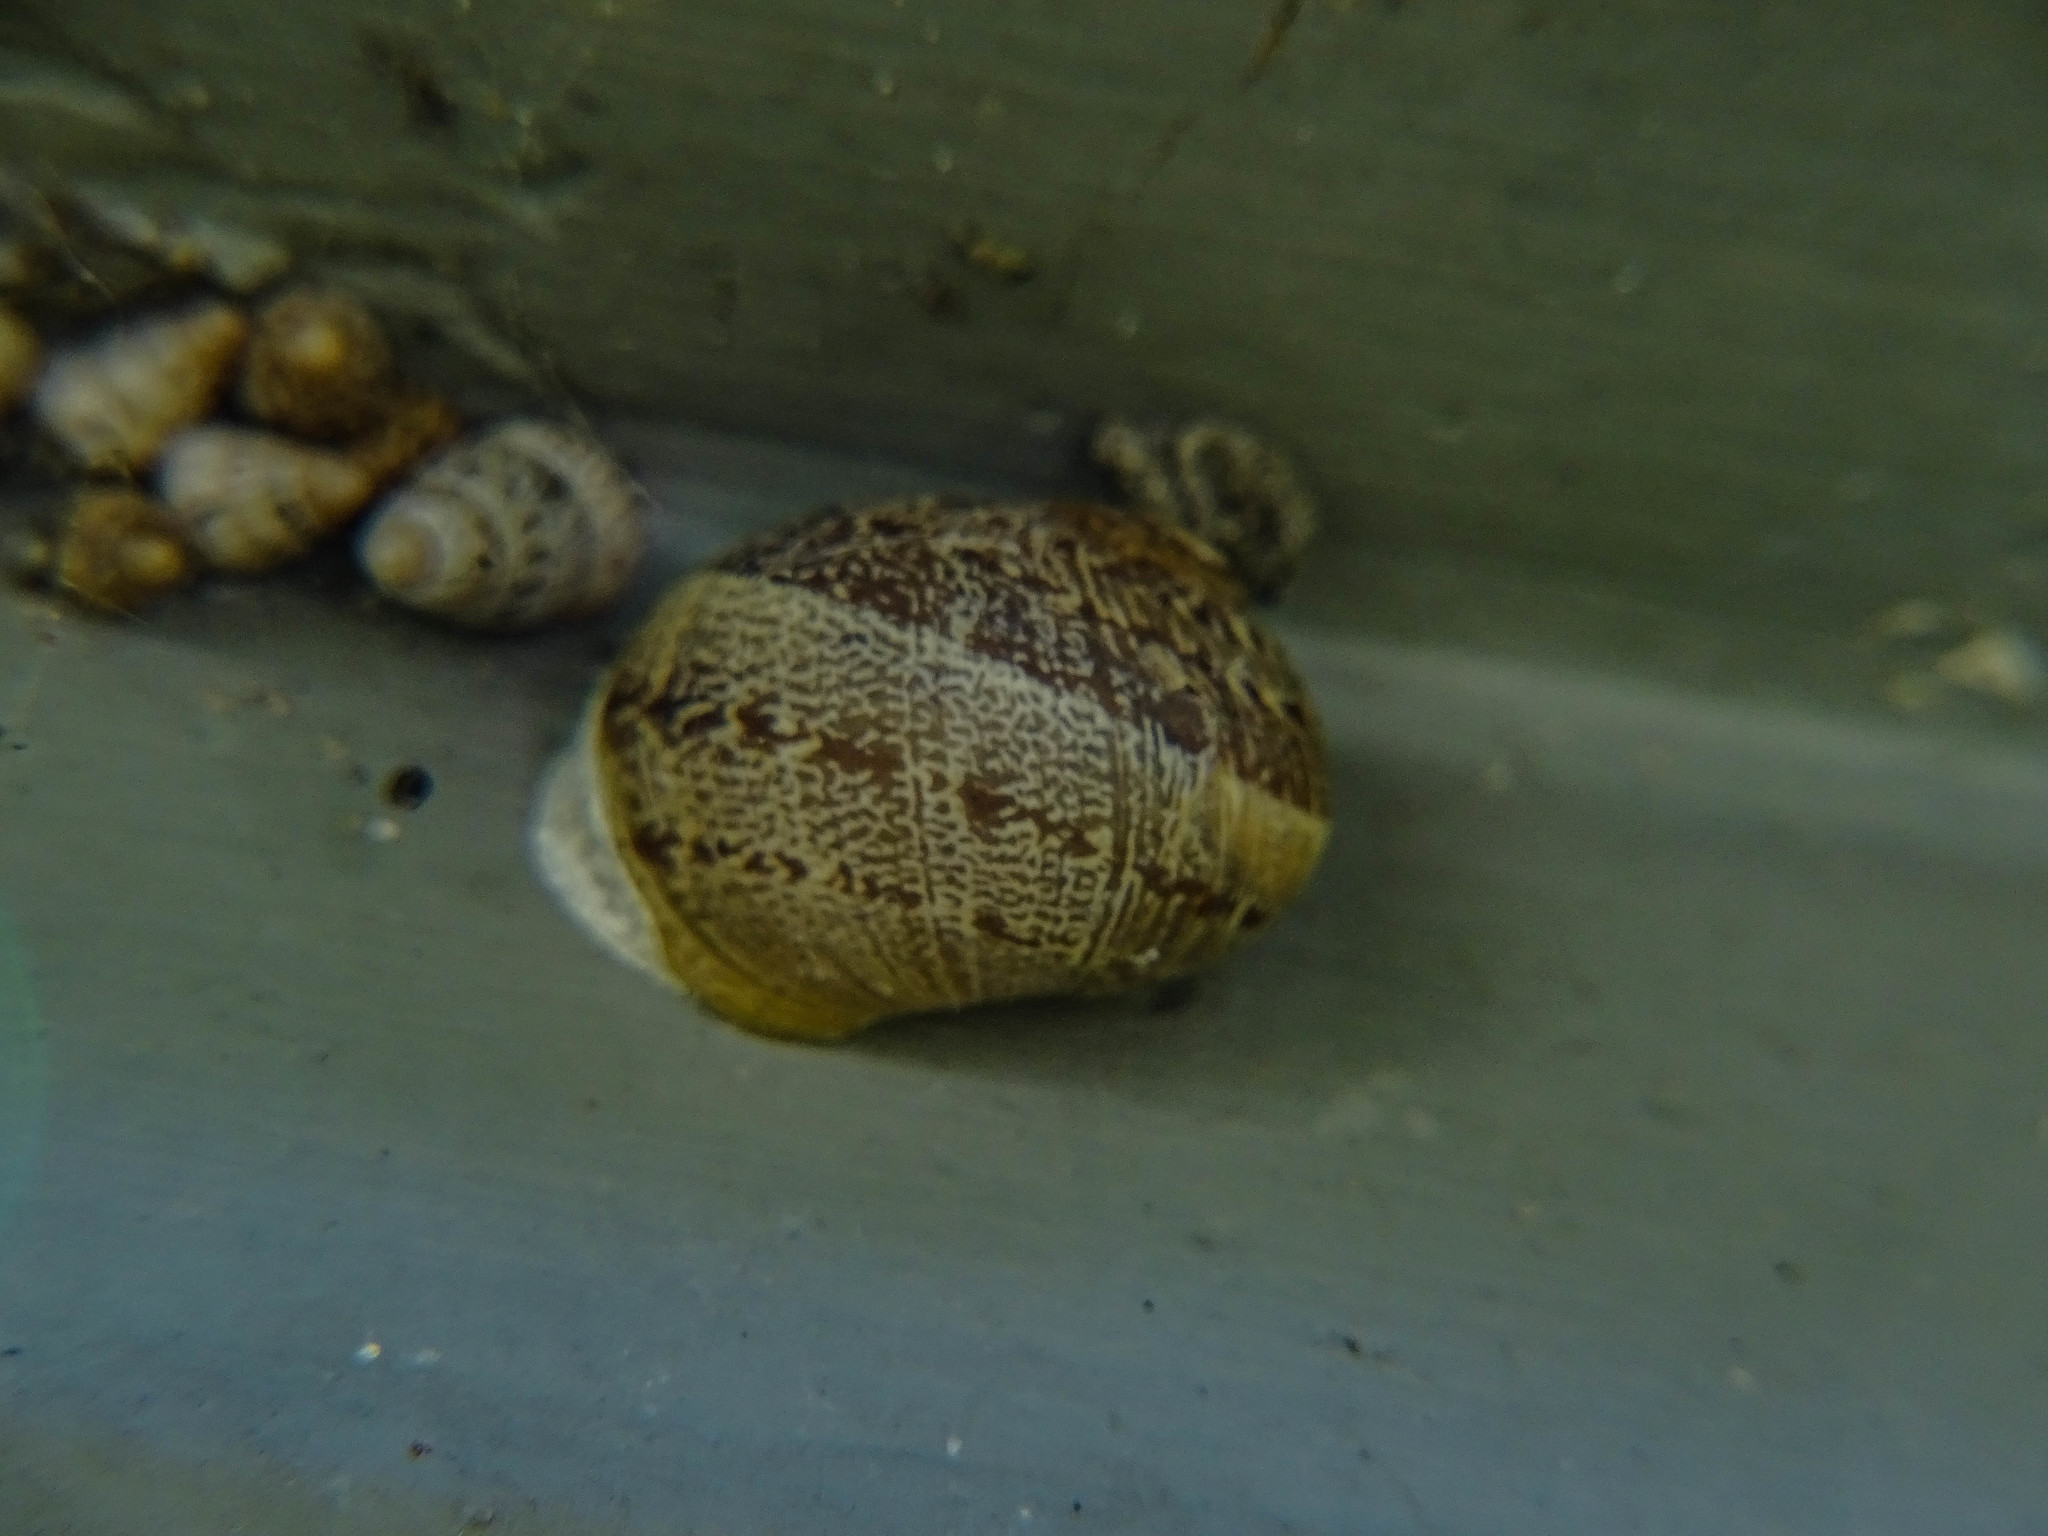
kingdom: Animalia
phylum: Mollusca
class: Gastropoda
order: Stylommatophora
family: Helicidae
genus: Cornu
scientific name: Cornu aspersum
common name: Brown garden snail
